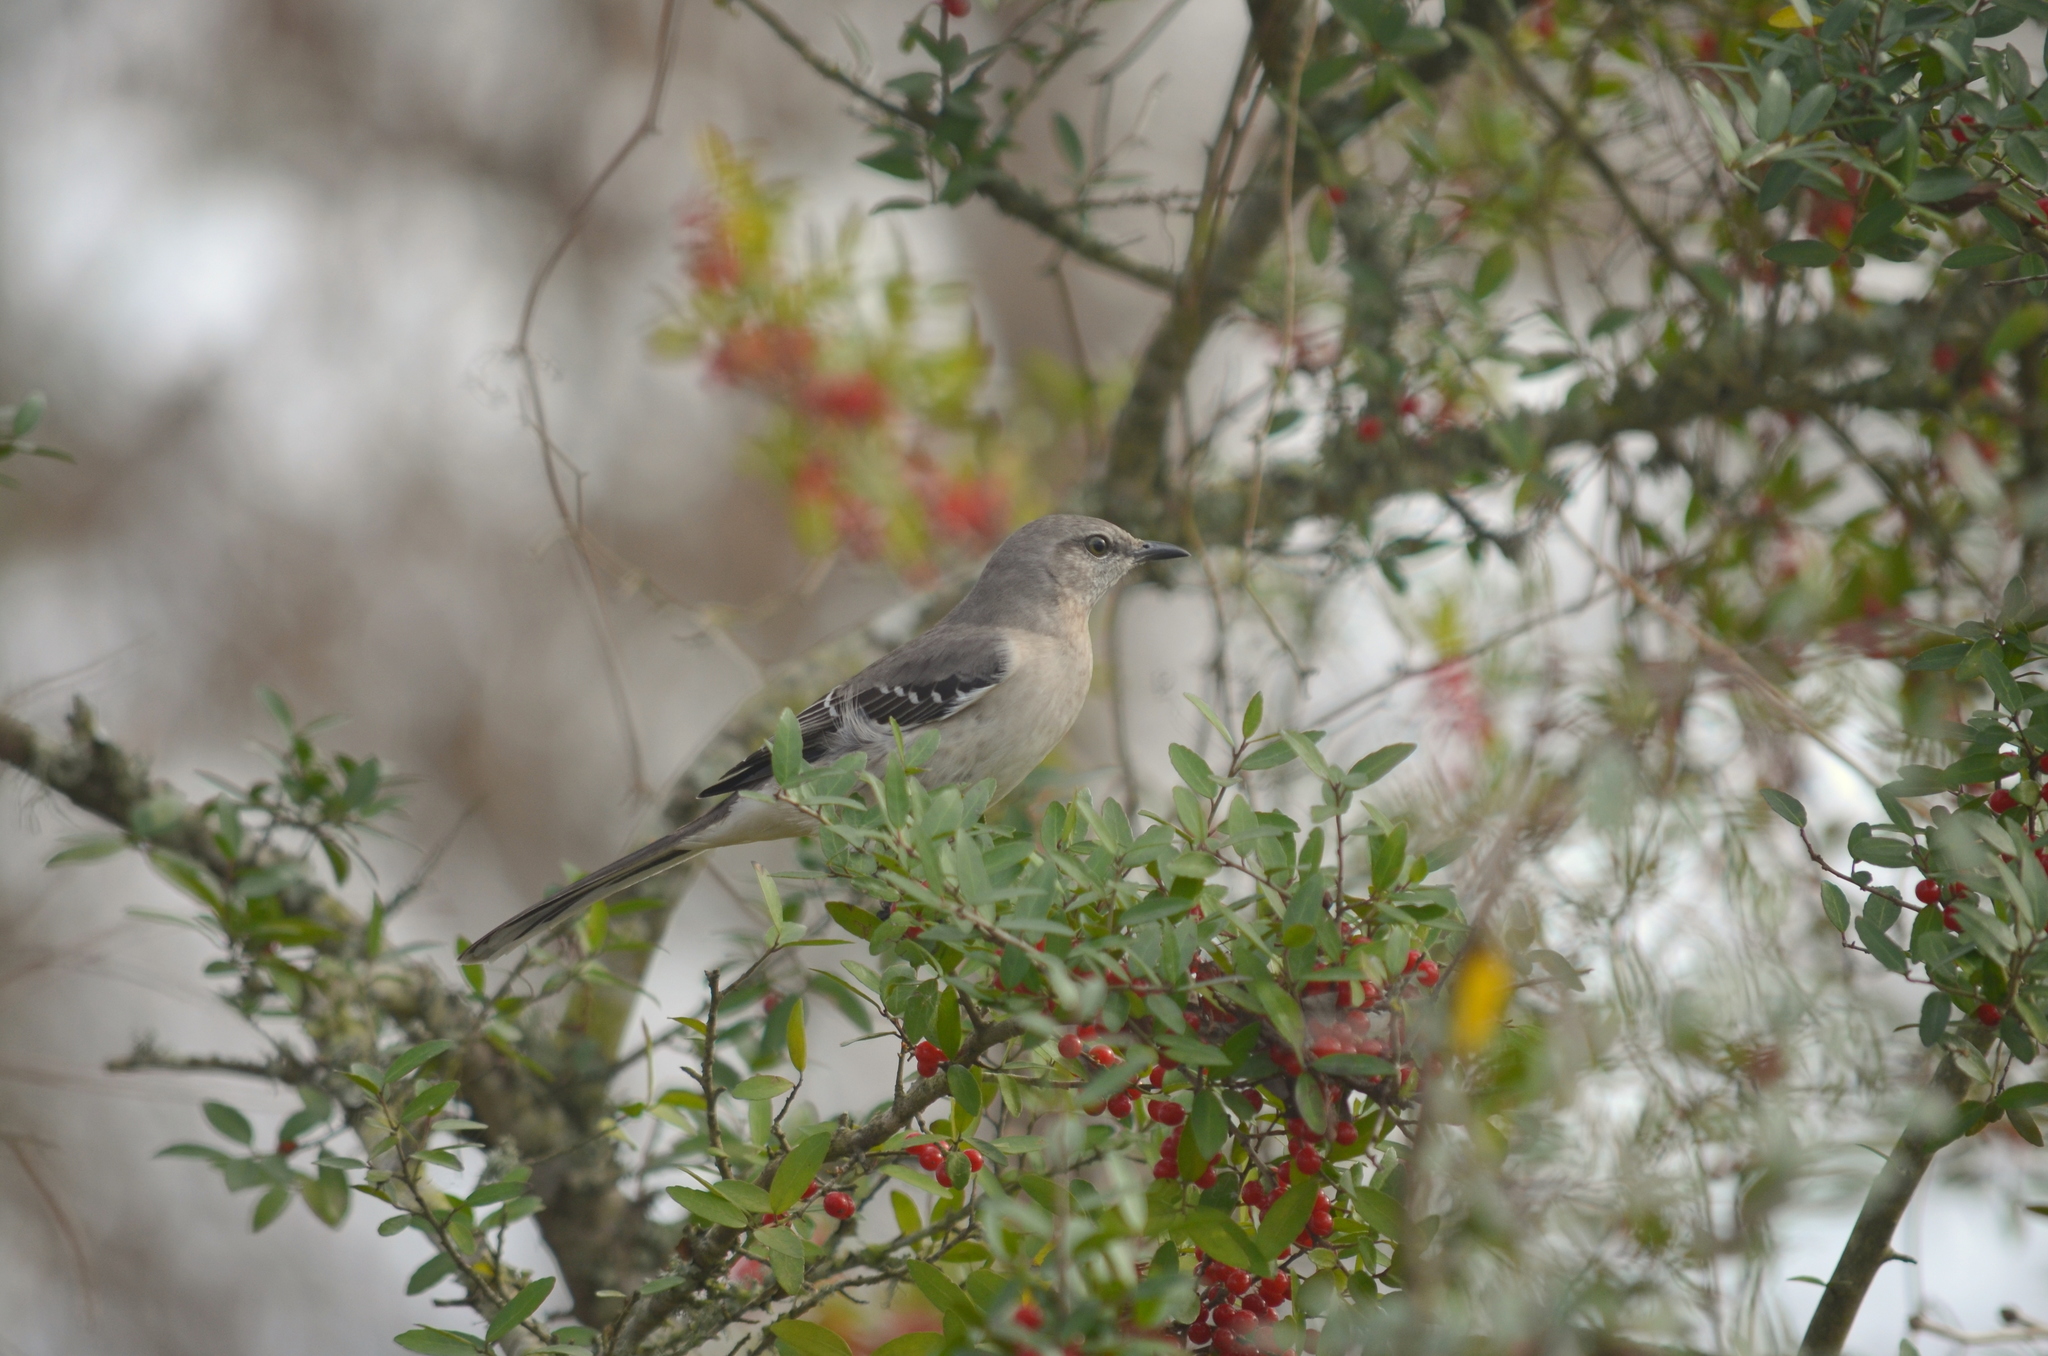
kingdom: Animalia
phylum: Chordata
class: Aves
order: Passeriformes
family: Mimidae
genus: Mimus
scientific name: Mimus polyglottos
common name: Northern mockingbird
